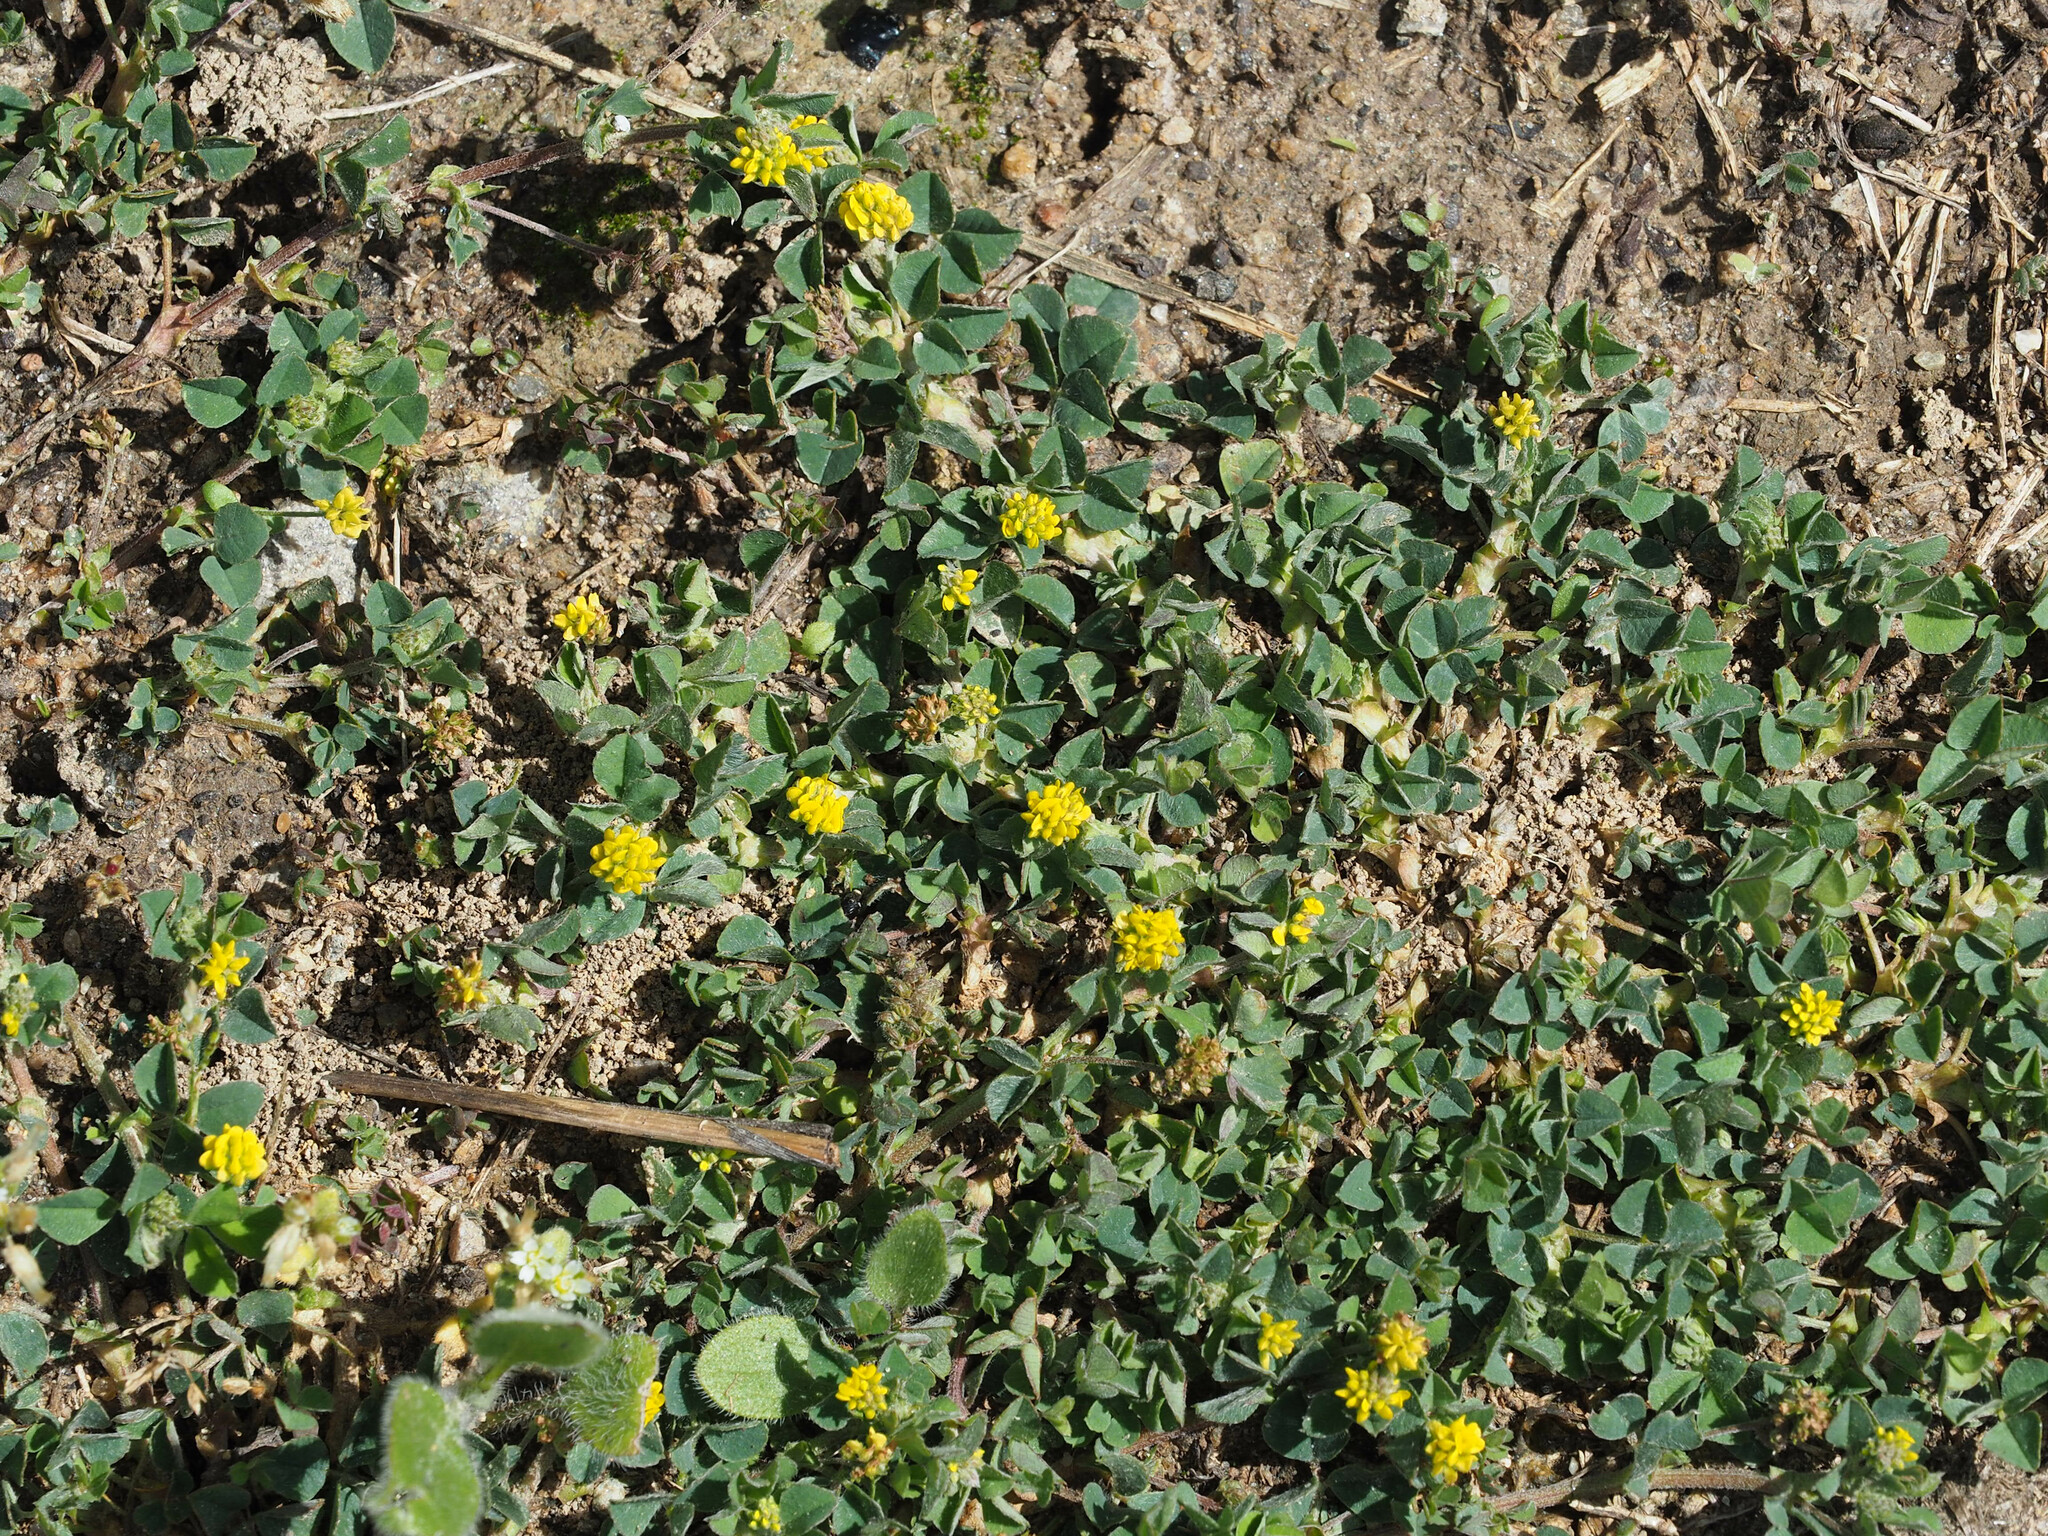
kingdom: Plantae
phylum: Tracheophyta
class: Magnoliopsida
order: Fabales
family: Fabaceae
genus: Medicago
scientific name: Medicago lupulina
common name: Black medick
